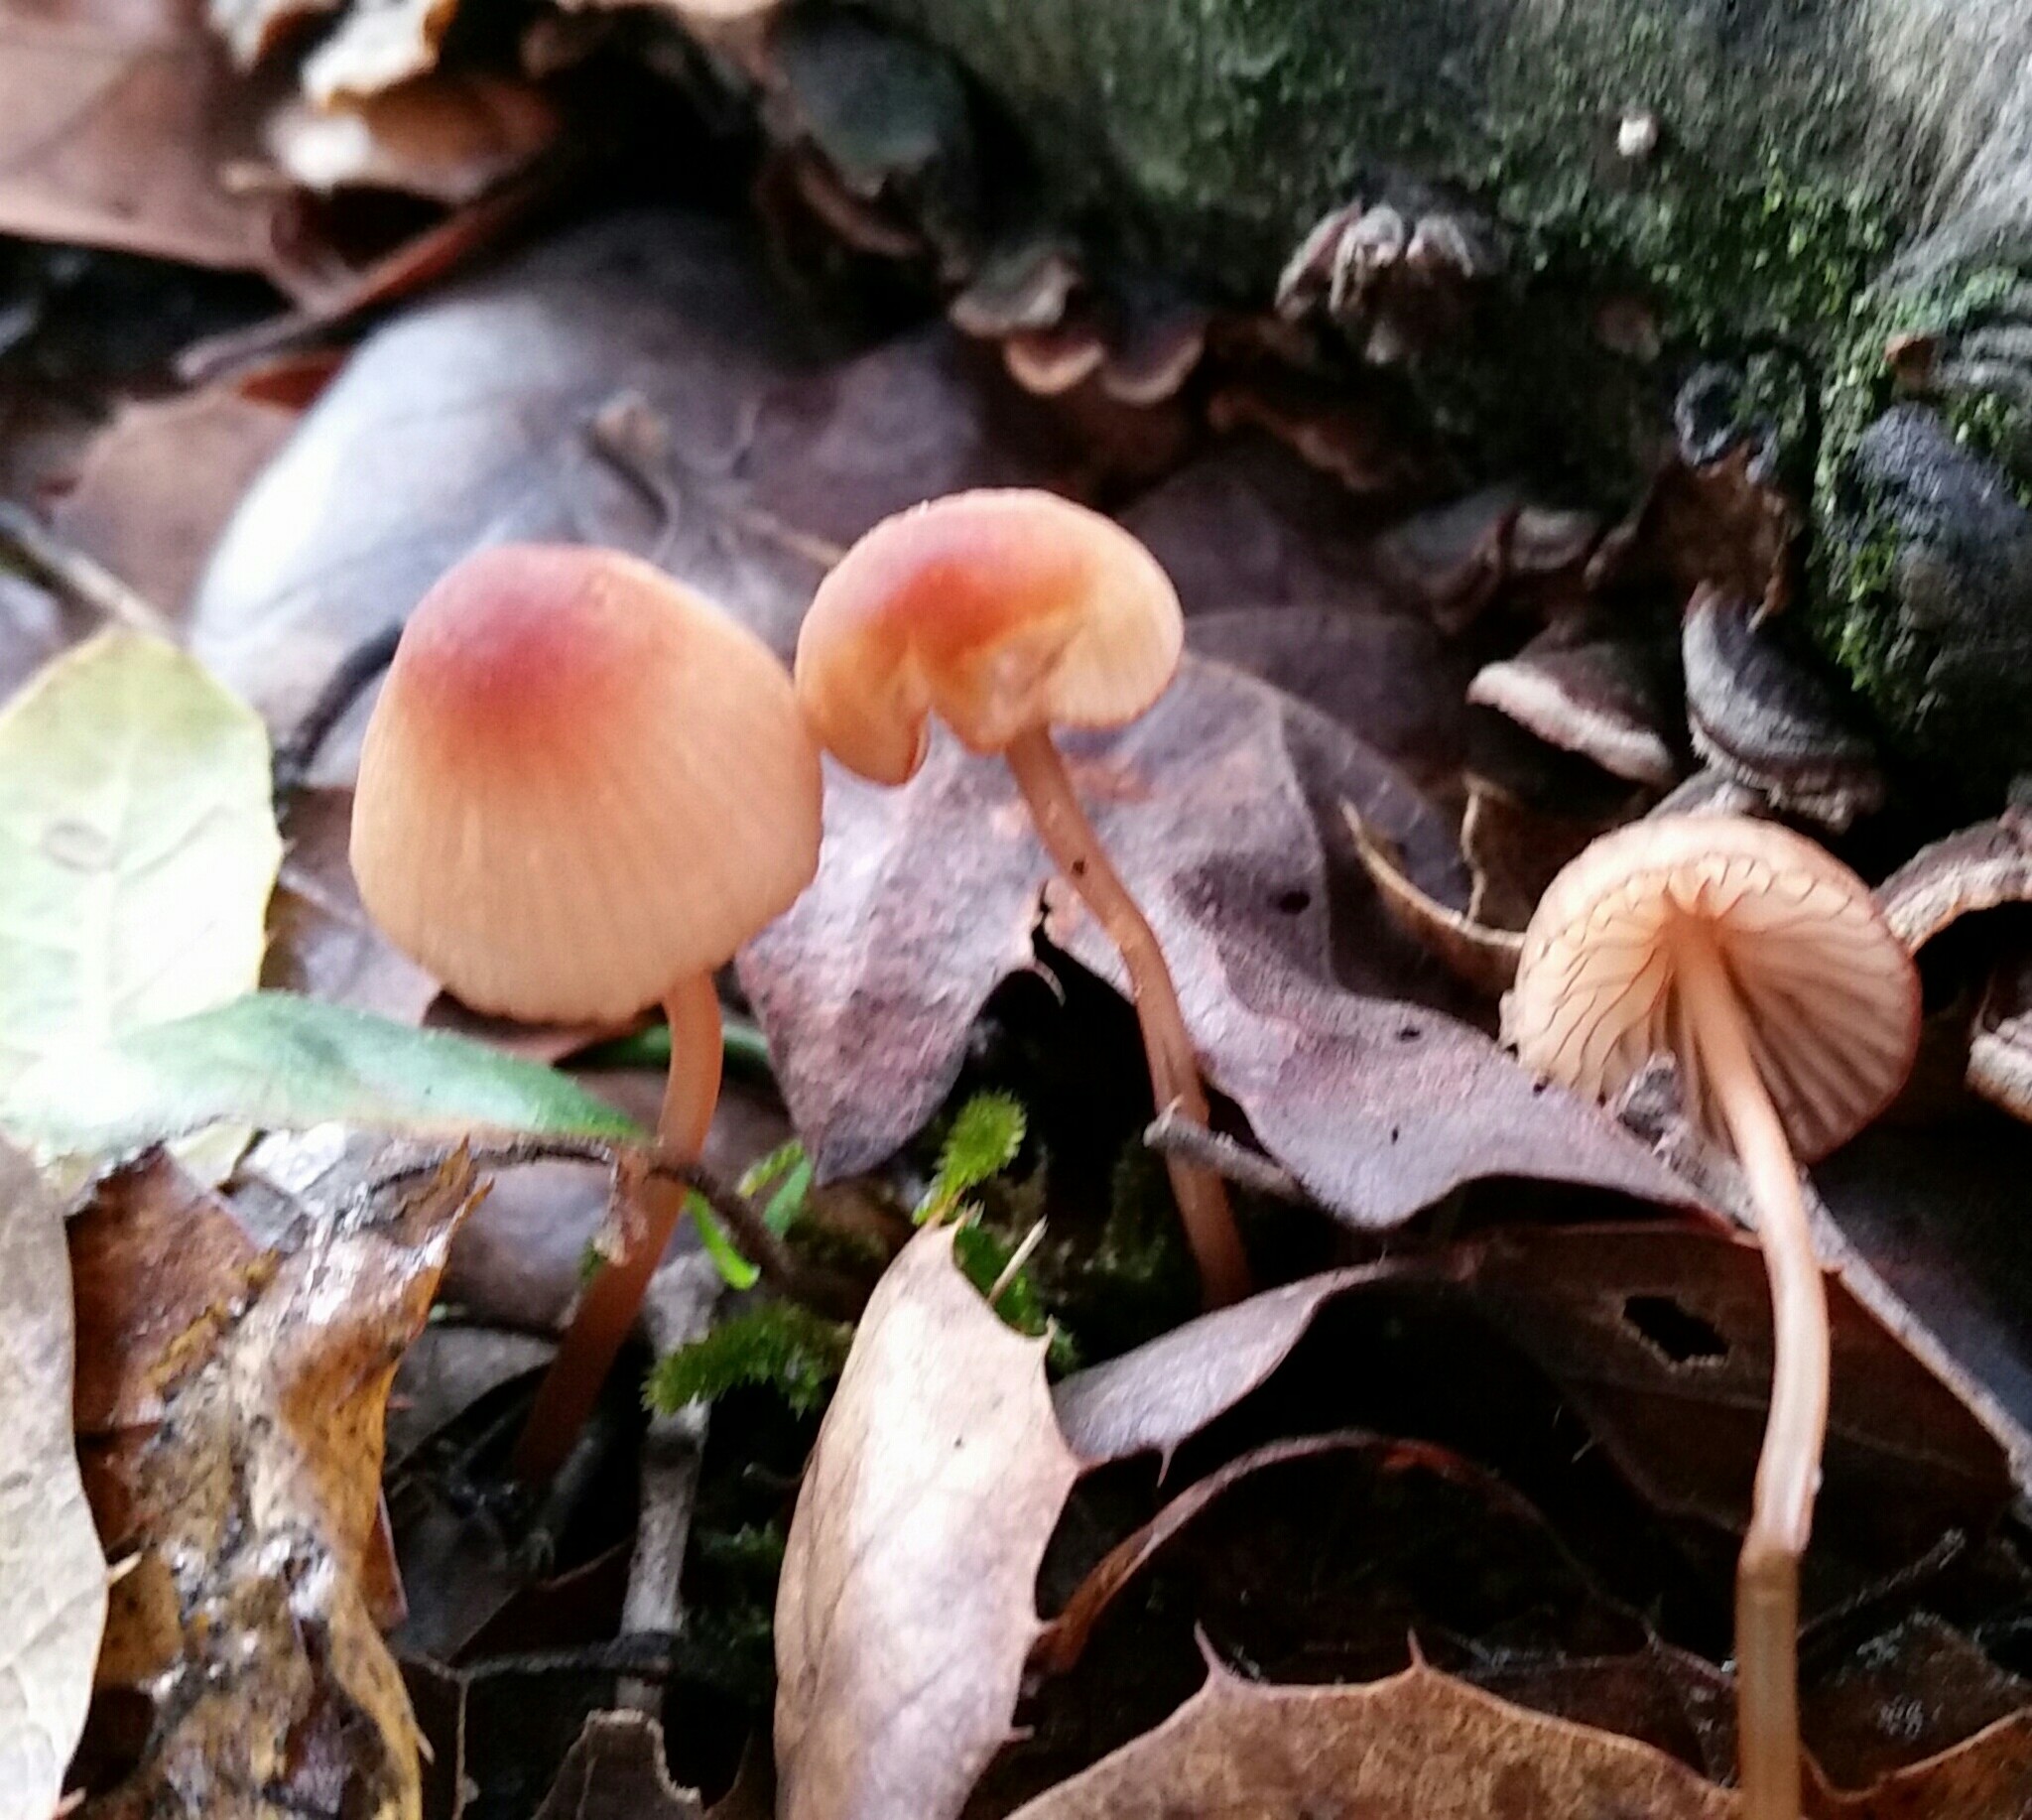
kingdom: Fungi
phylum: Basidiomycota
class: Agaricomycetes
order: Agaricales
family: Mycenaceae
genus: Mycena
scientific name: Mycena
